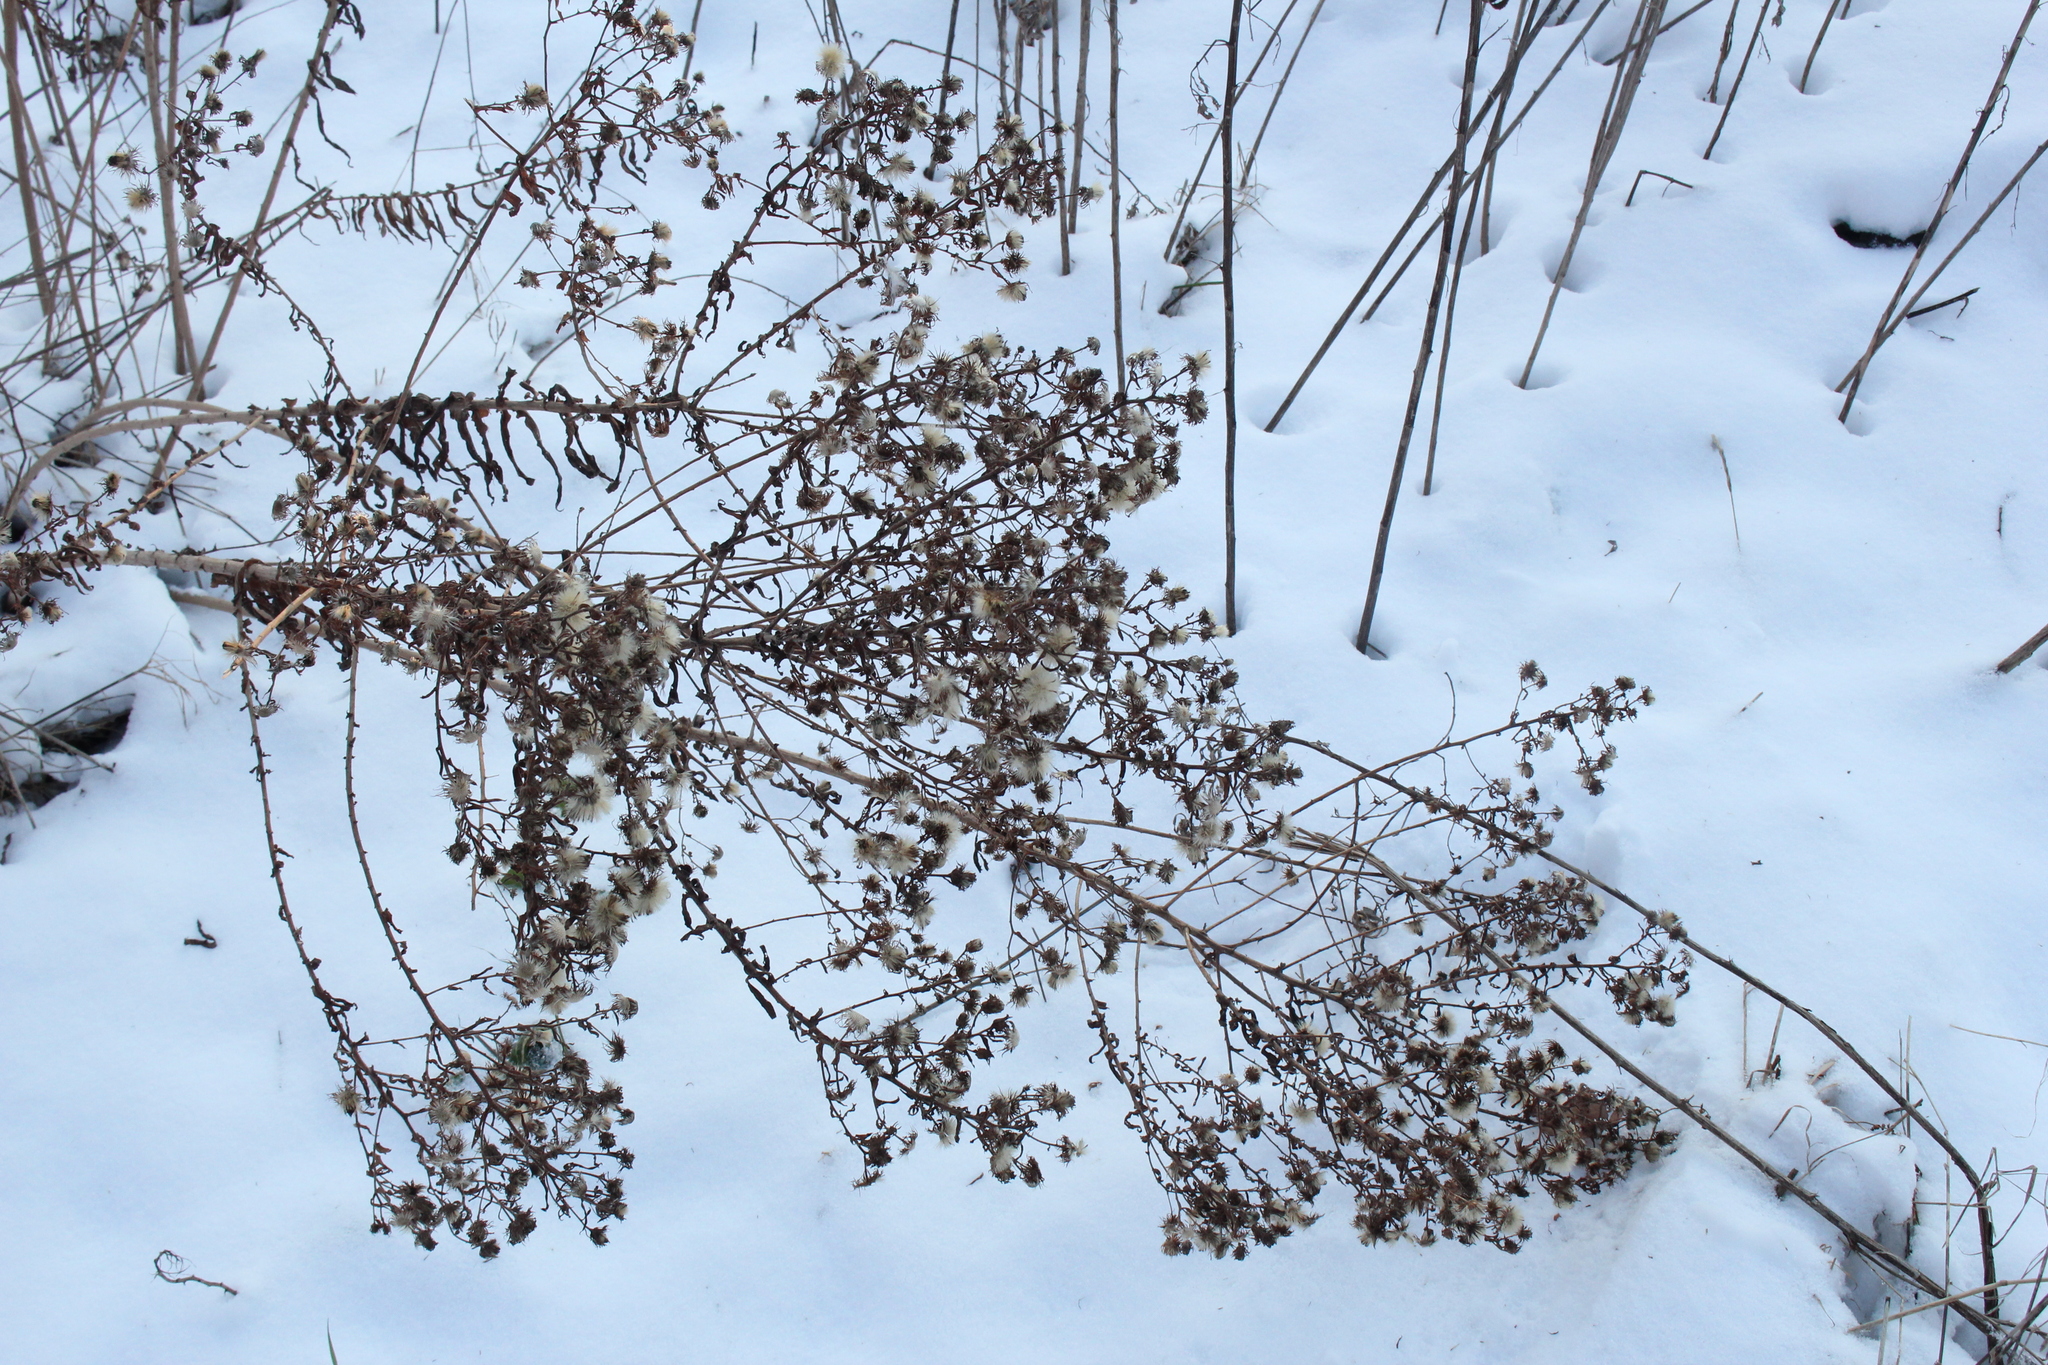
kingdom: Plantae
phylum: Tracheophyta
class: Magnoliopsida
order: Asterales
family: Asteraceae
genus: Symphyotrichum
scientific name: Symphyotrichum novae-angliae
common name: Michaelmas daisy
